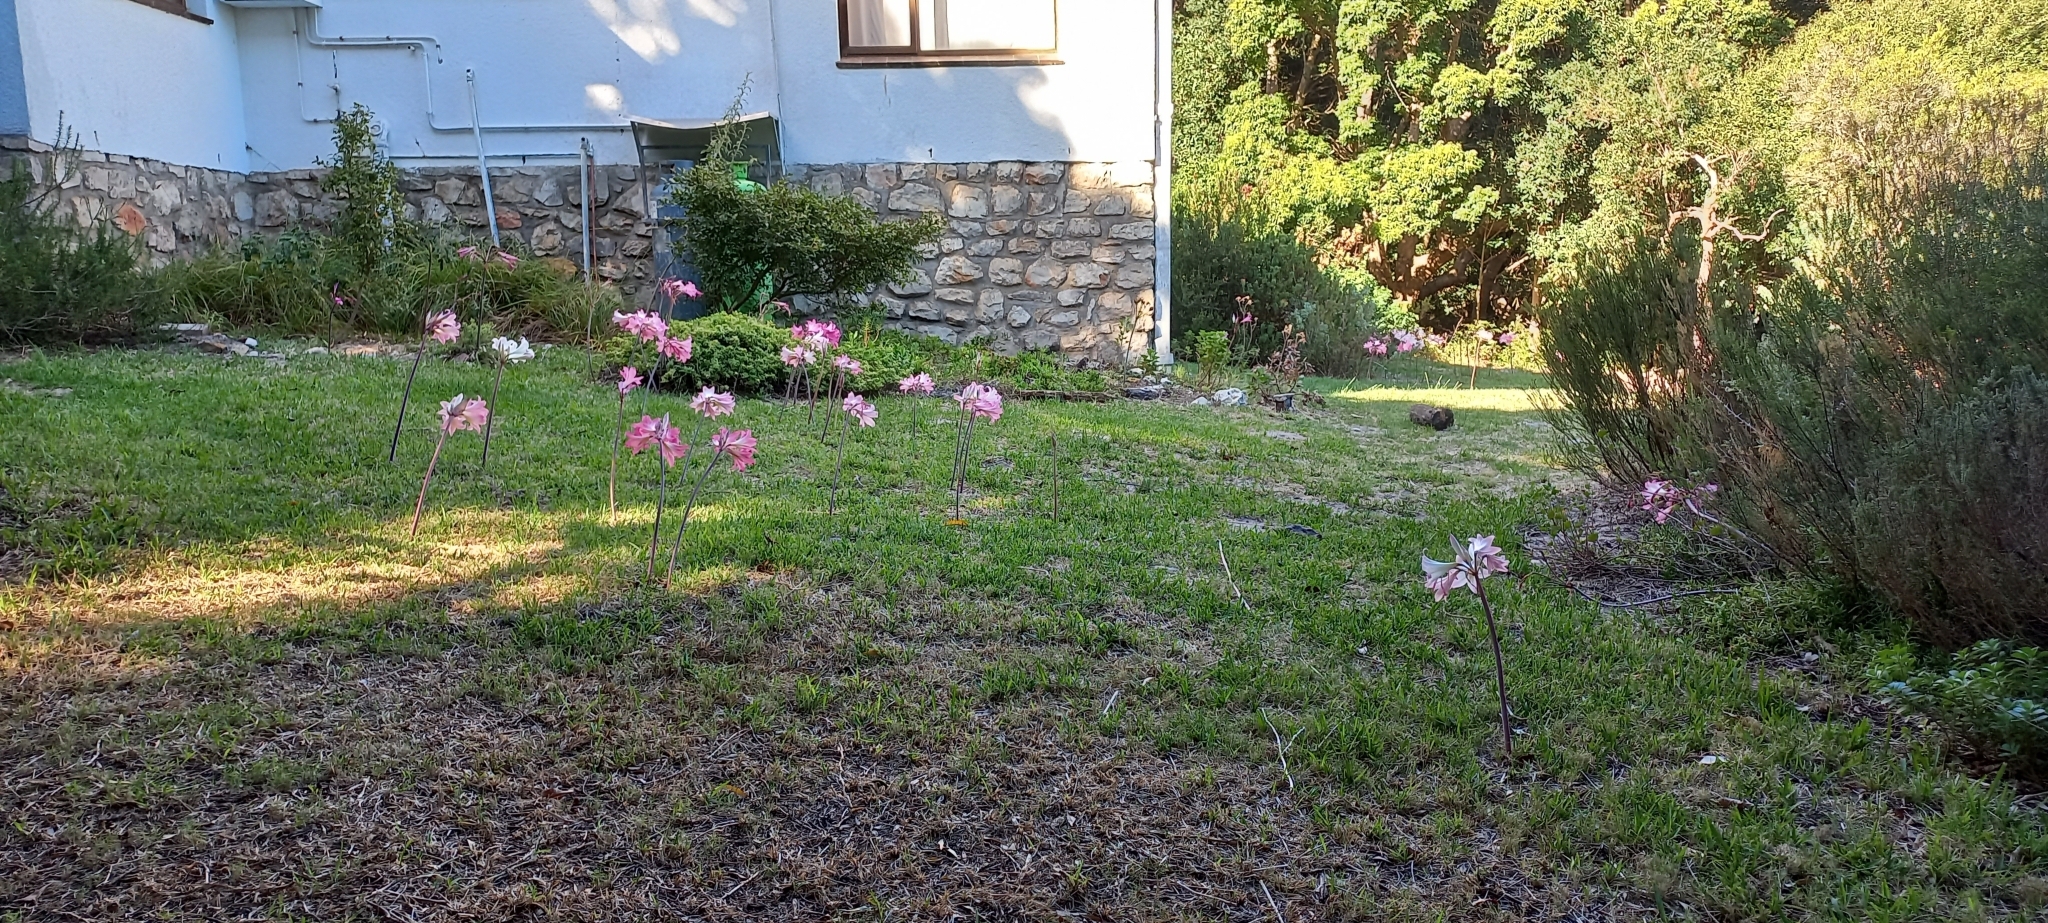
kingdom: Plantae
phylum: Tracheophyta
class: Liliopsida
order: Asparagales
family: Amaryllidaceae
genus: Amaryllis
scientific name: Amaryllis belladonna
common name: Jersey lily
